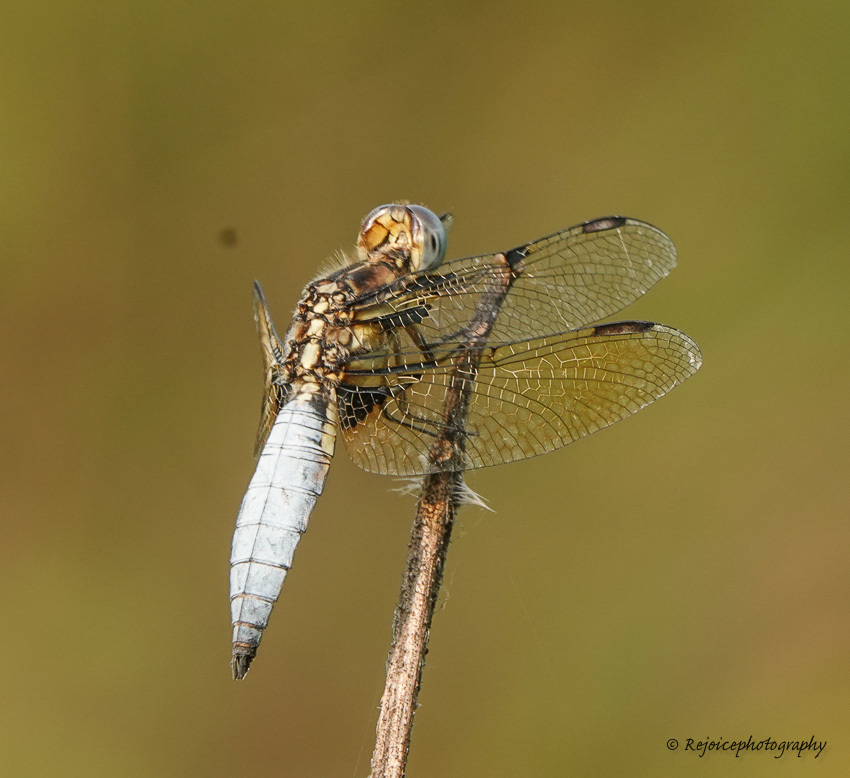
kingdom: Animalia
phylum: Arthropoda
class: Insecta
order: Odonata
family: Libellulidae
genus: Palpopleura
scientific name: Palpopleura sexmaculata
